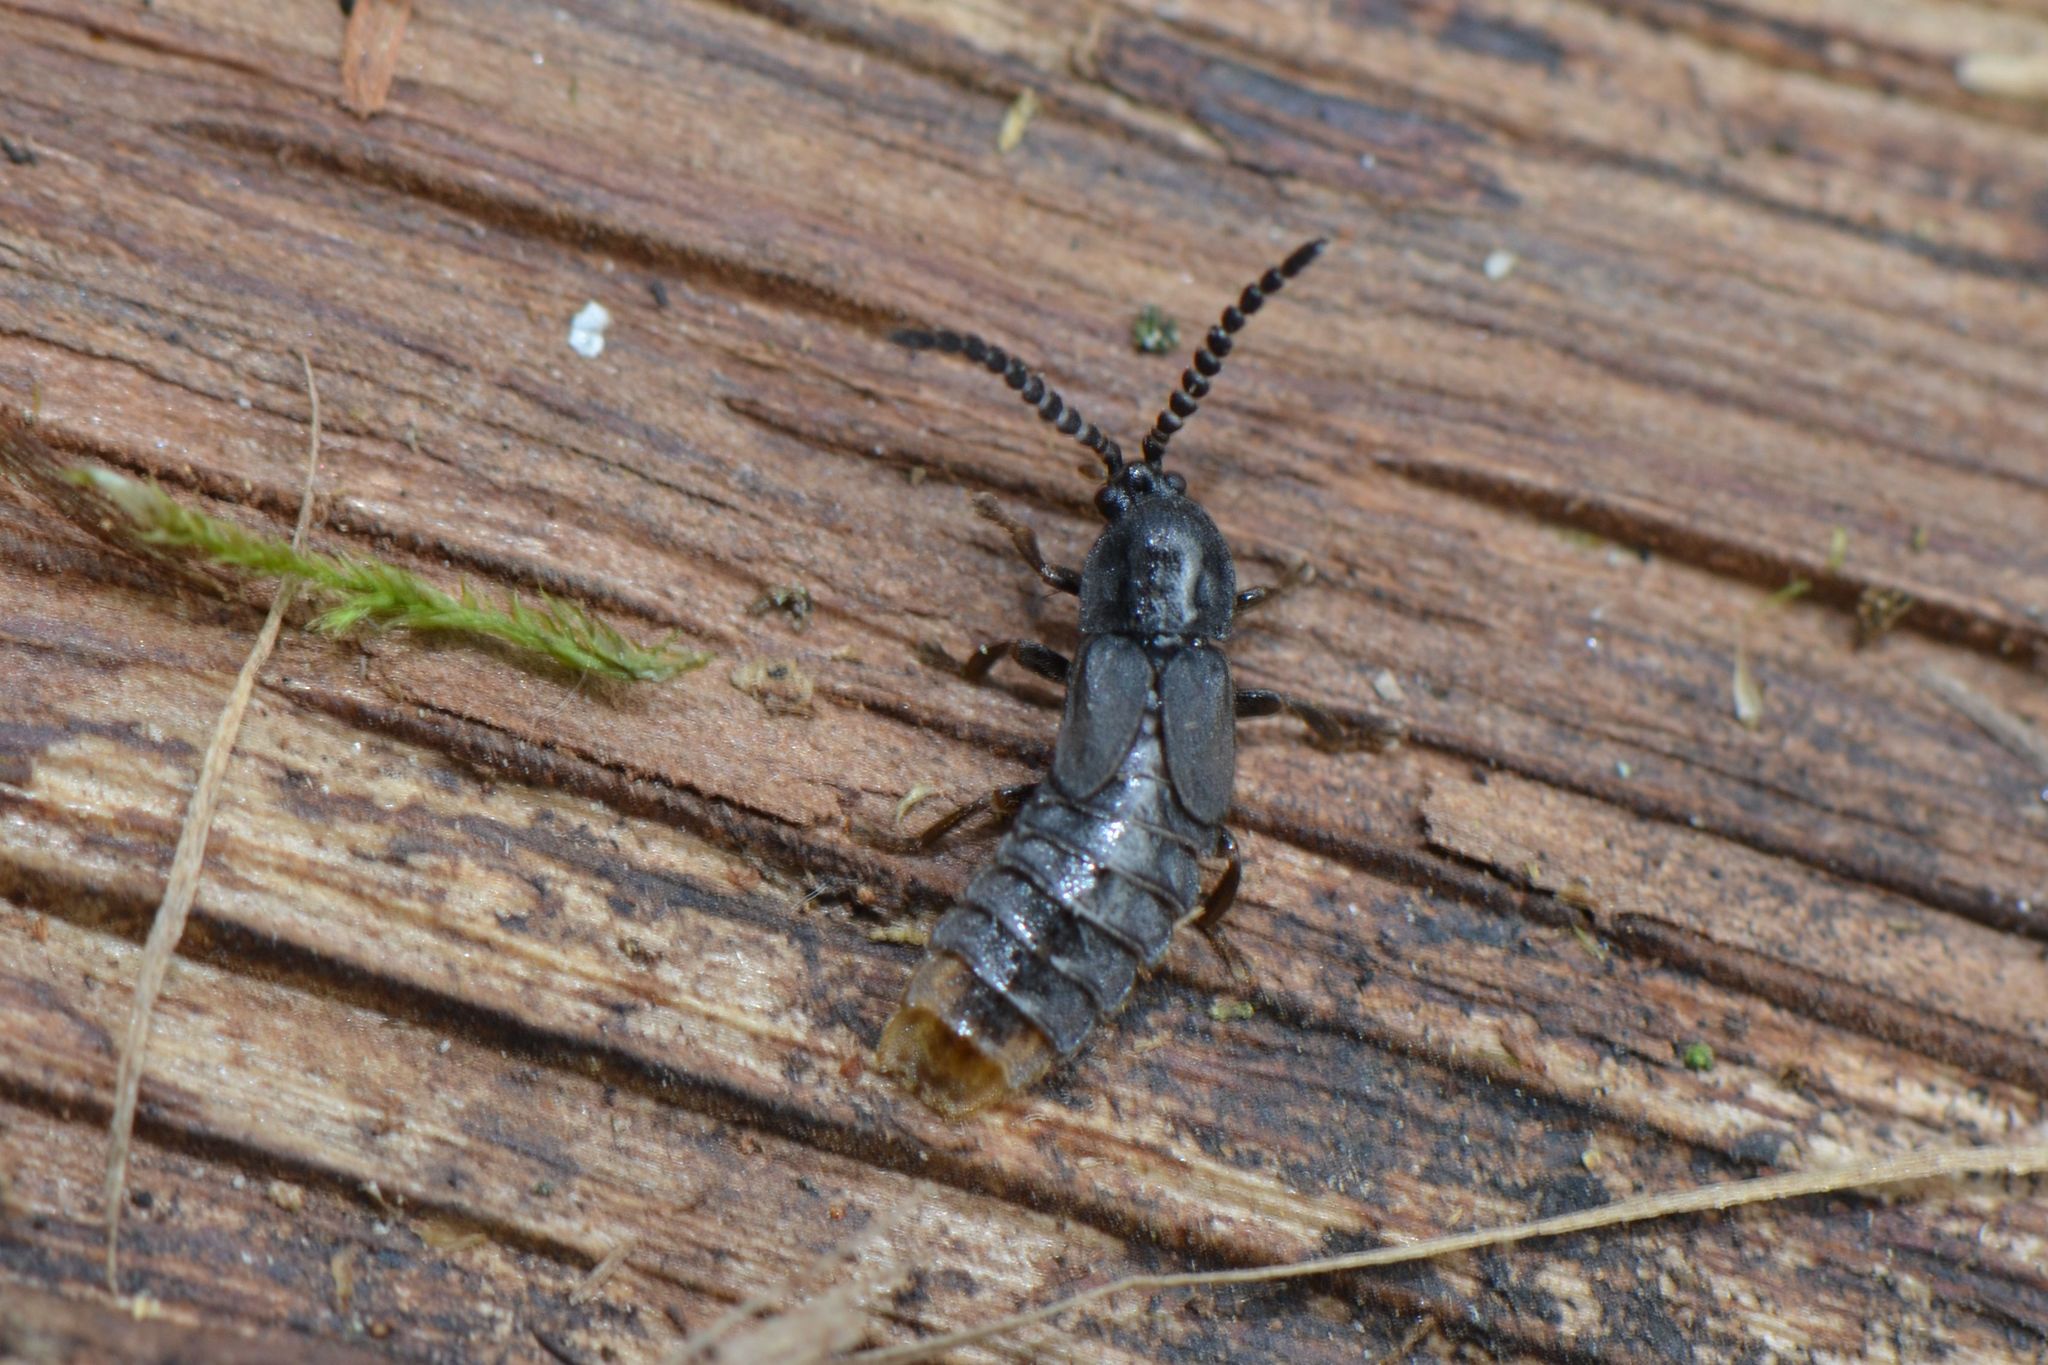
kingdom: Animalia
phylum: Arthropoda
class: Insecta
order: Coleoptera
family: Lampyridae
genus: Phosphaenus
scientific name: Phosphaenus hemipterus
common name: Short-winged firefly
